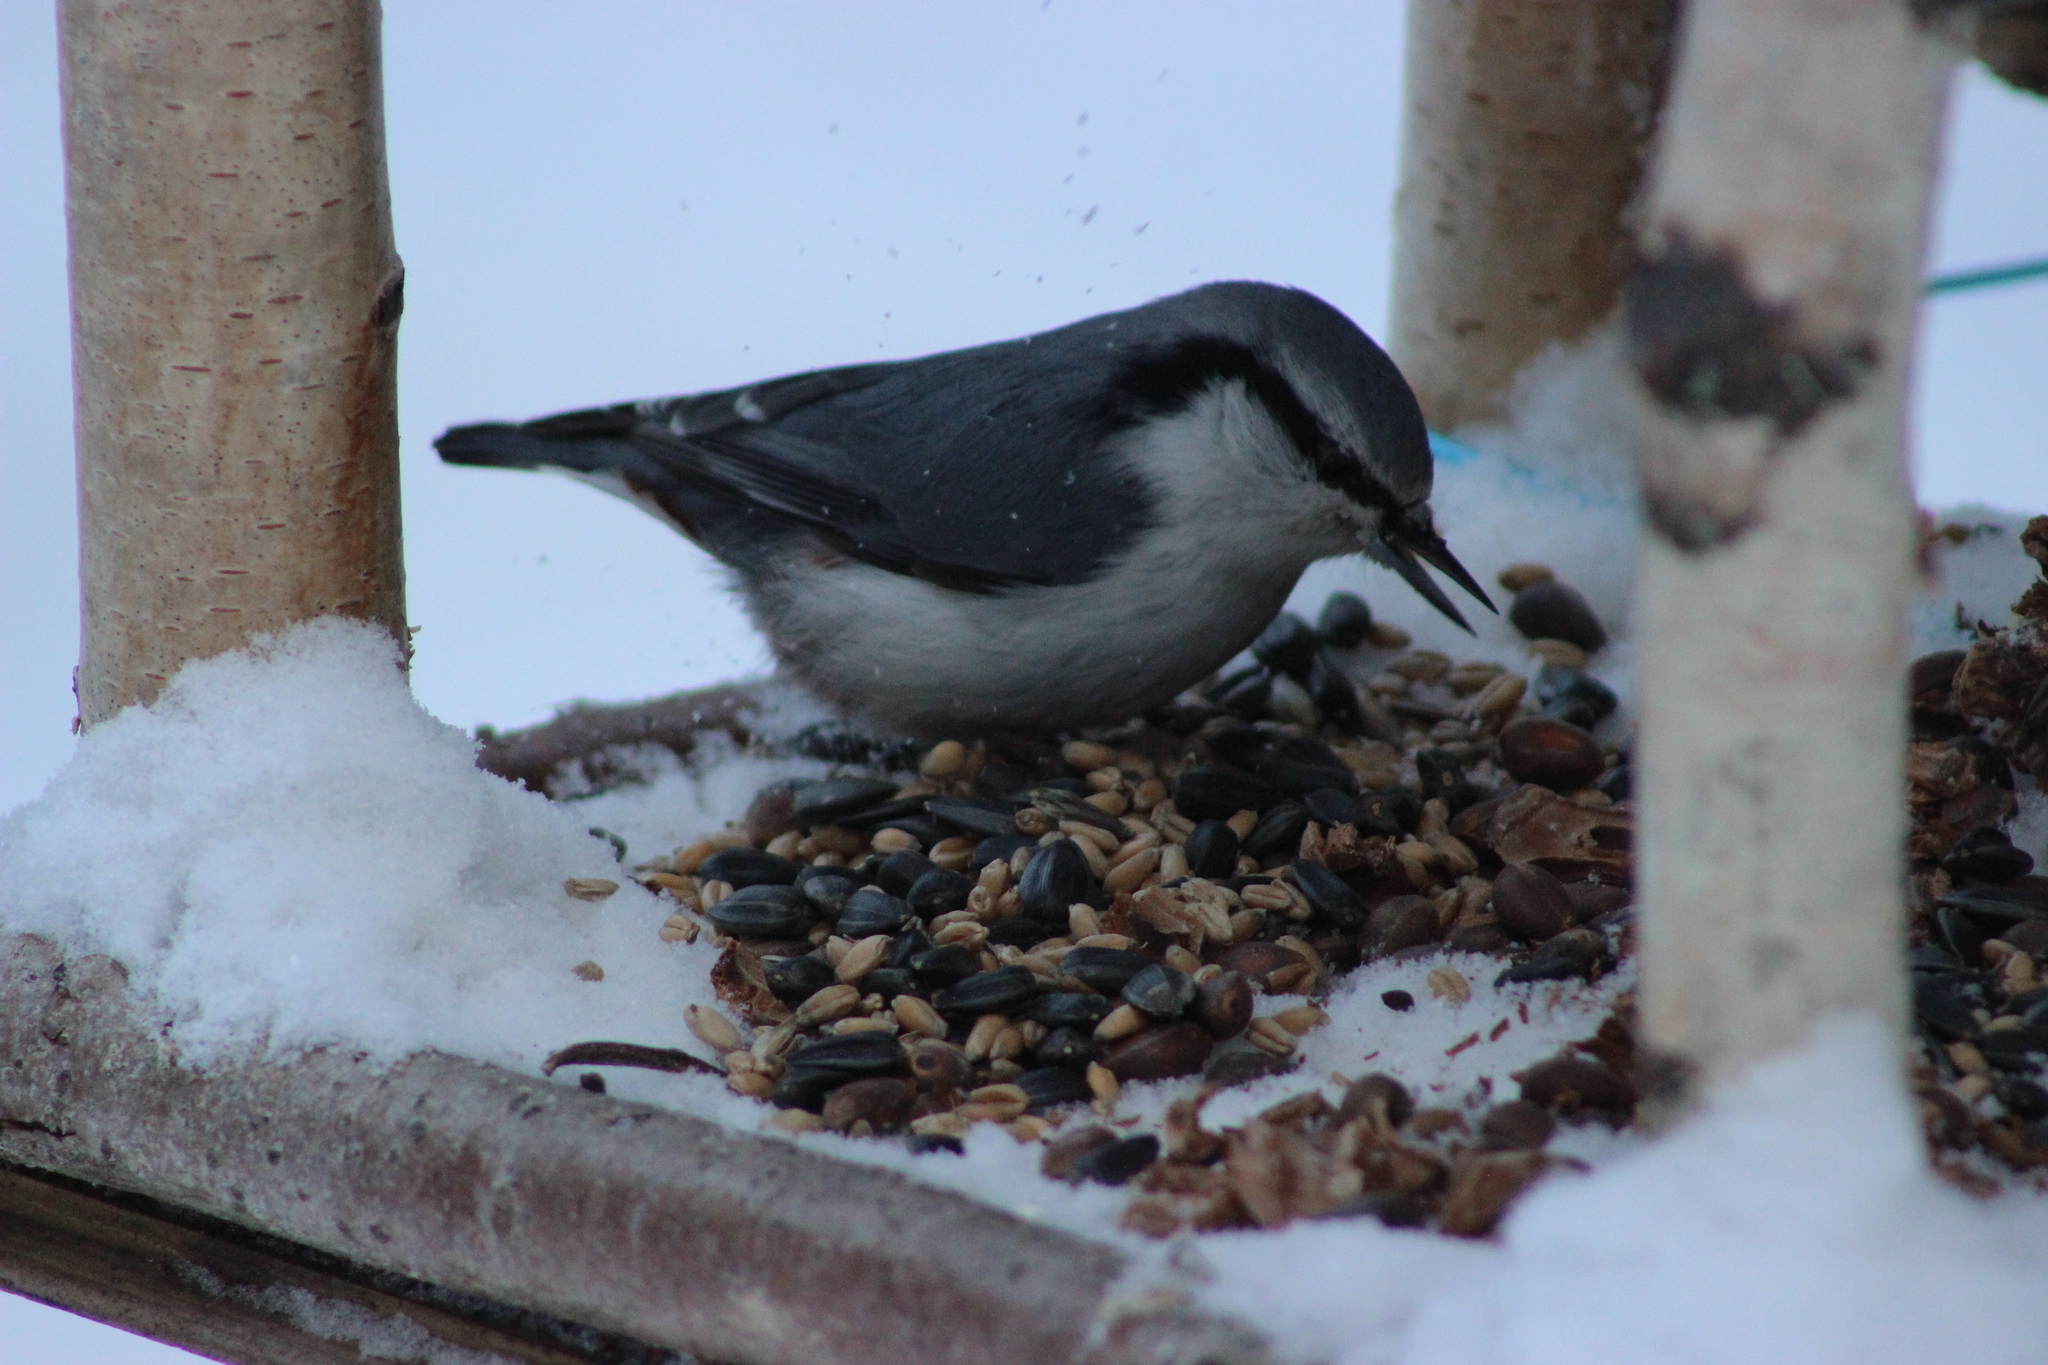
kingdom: Animalia
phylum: Chordata
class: Aves
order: Passeriformes
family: Sittidae
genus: Sitta
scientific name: Sitta europaea
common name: Eurasian nuthatch
